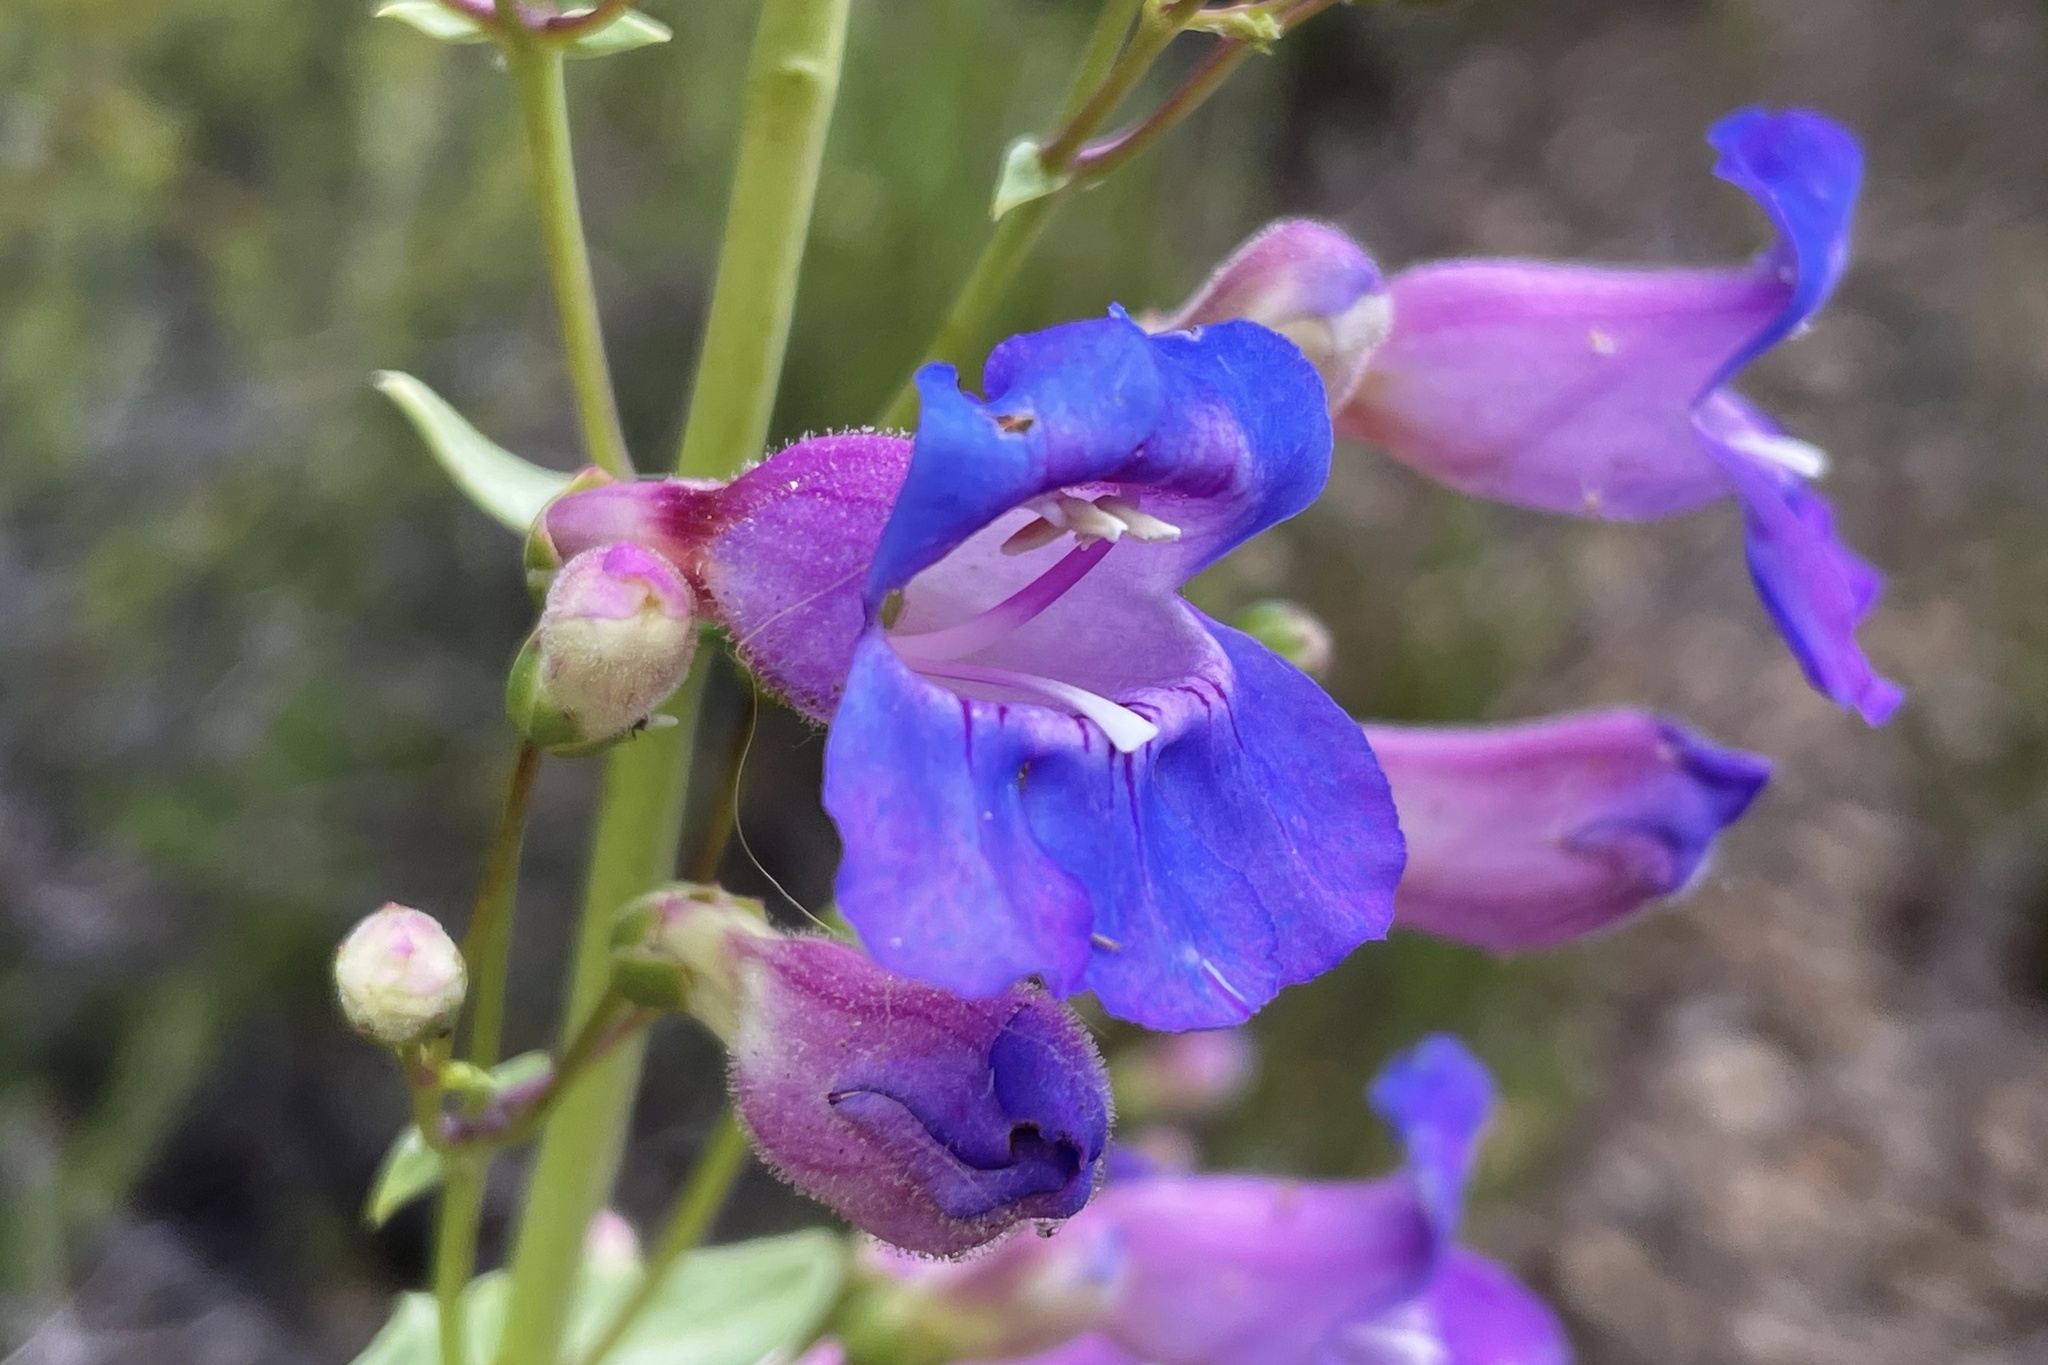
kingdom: Plantae
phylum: Tracheophyta
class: Magnoliopsida
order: Lamiales
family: Plantaginaceae
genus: Penstemon
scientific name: Penstemon spectabilis
